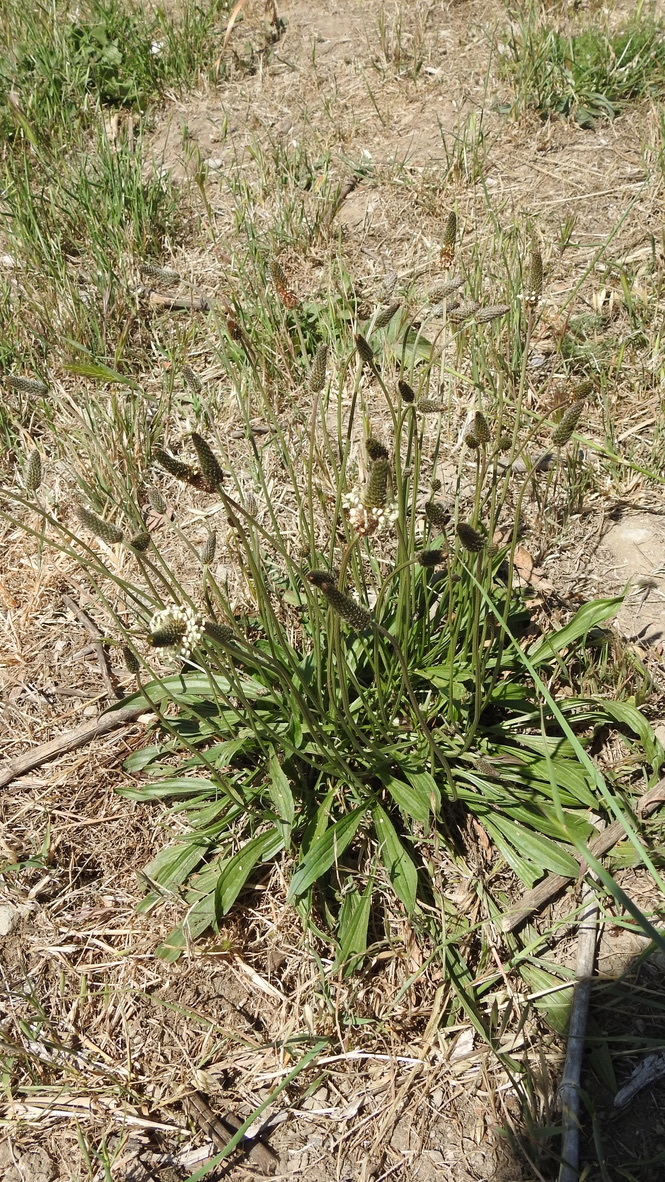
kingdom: Plantae
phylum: Tracheophyta
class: Magnoliopsida
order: Lamiales
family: Plantaginaceae
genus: Plantago
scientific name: Plantago lanceolata
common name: Ribwort plantain
